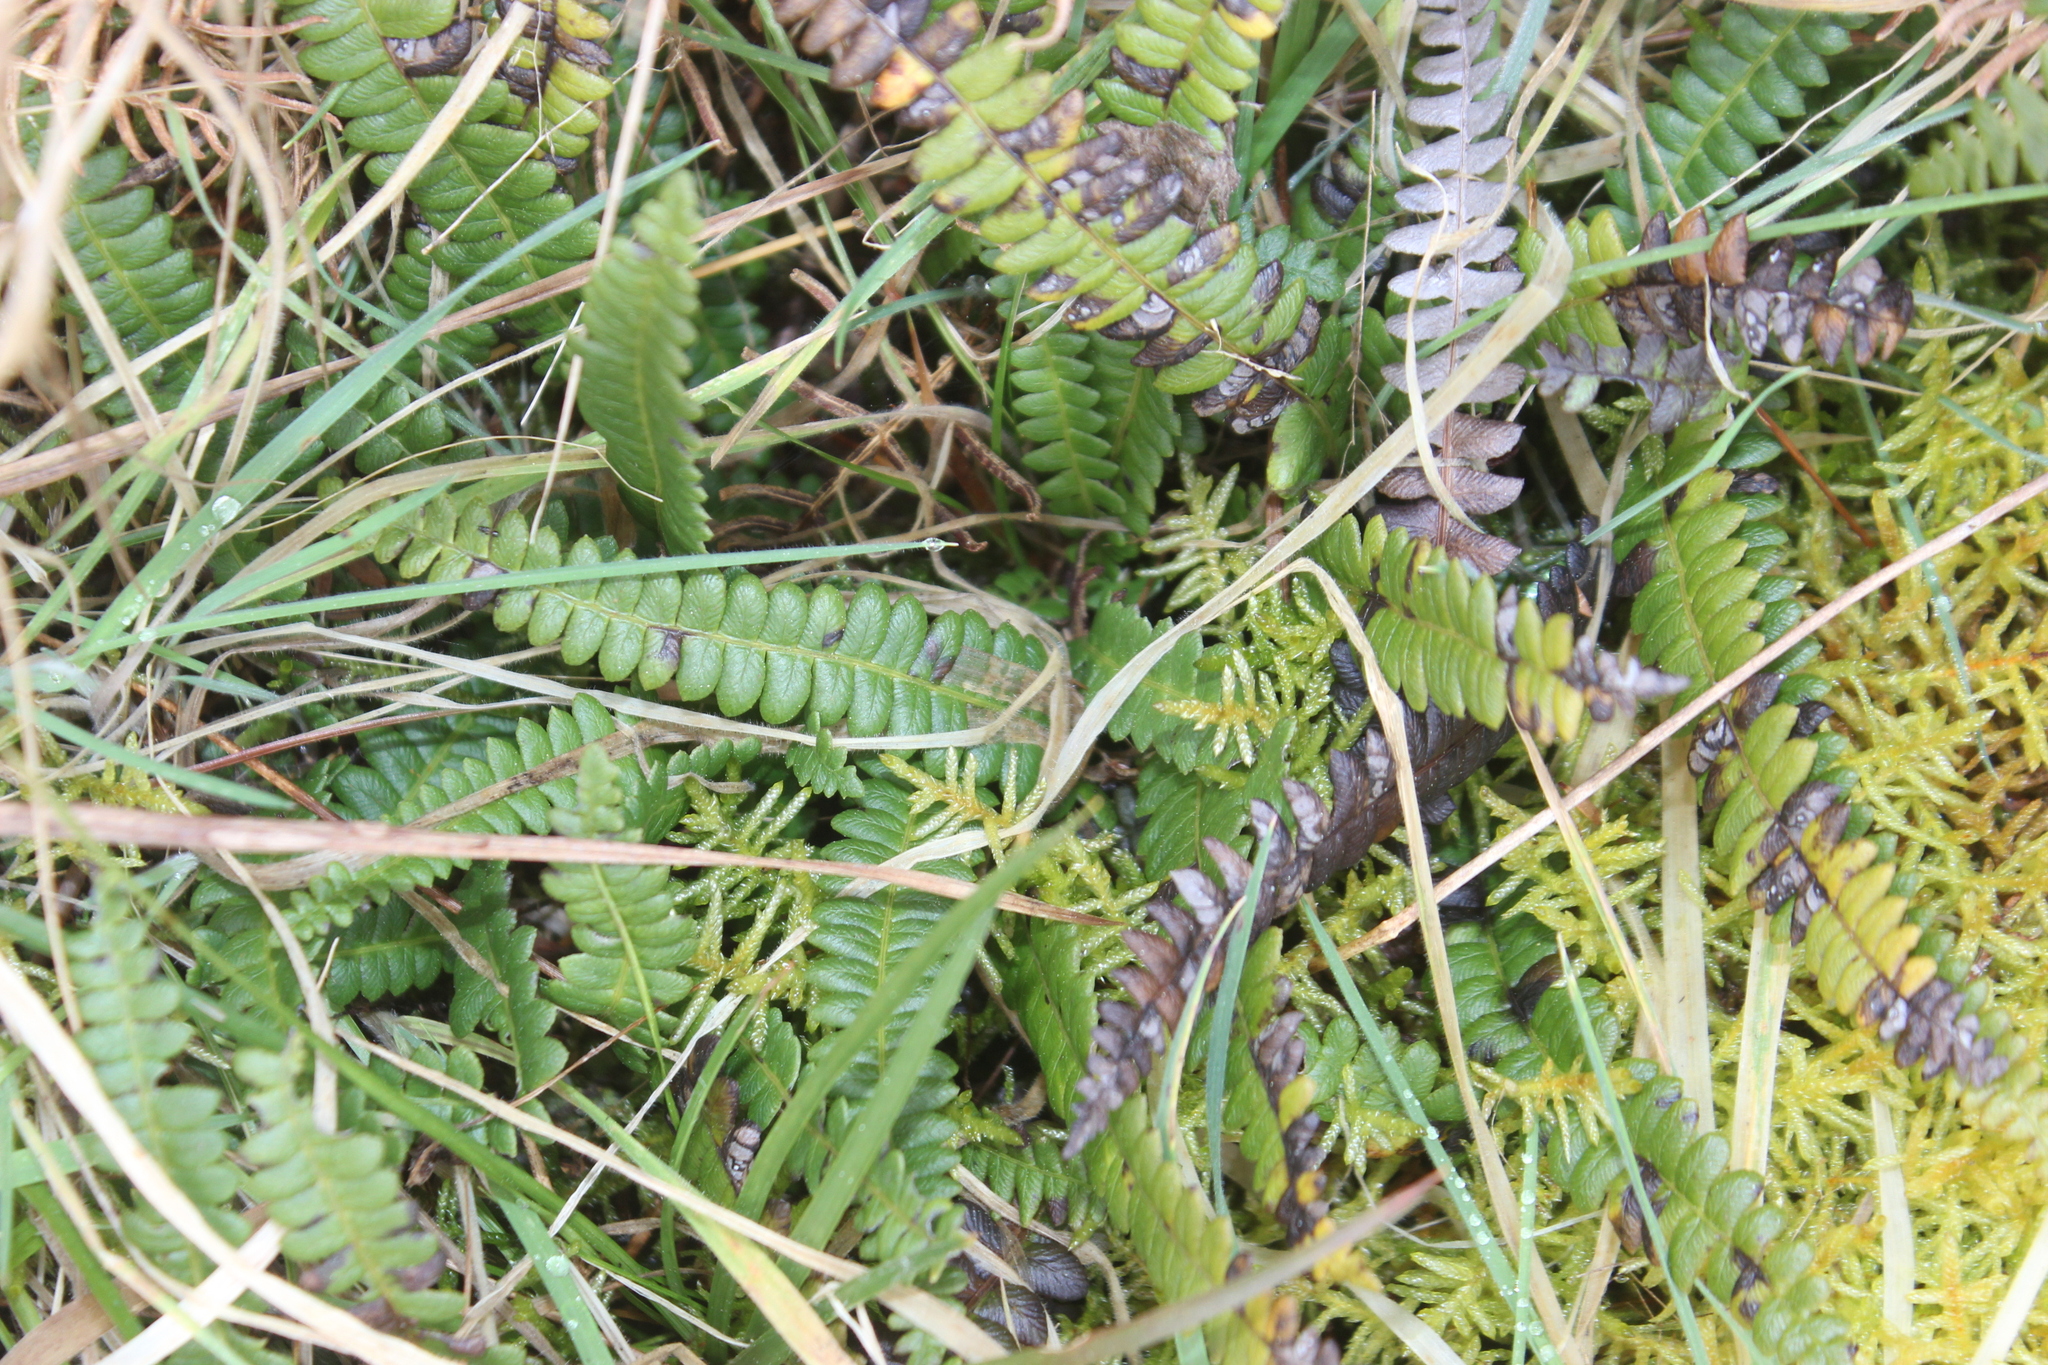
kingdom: Plantae
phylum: Tracheophyta
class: Polypodiopsida
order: Polypodiales
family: Blechnaceae
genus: Austroblechnum
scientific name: Austroblechnum penna-marina
